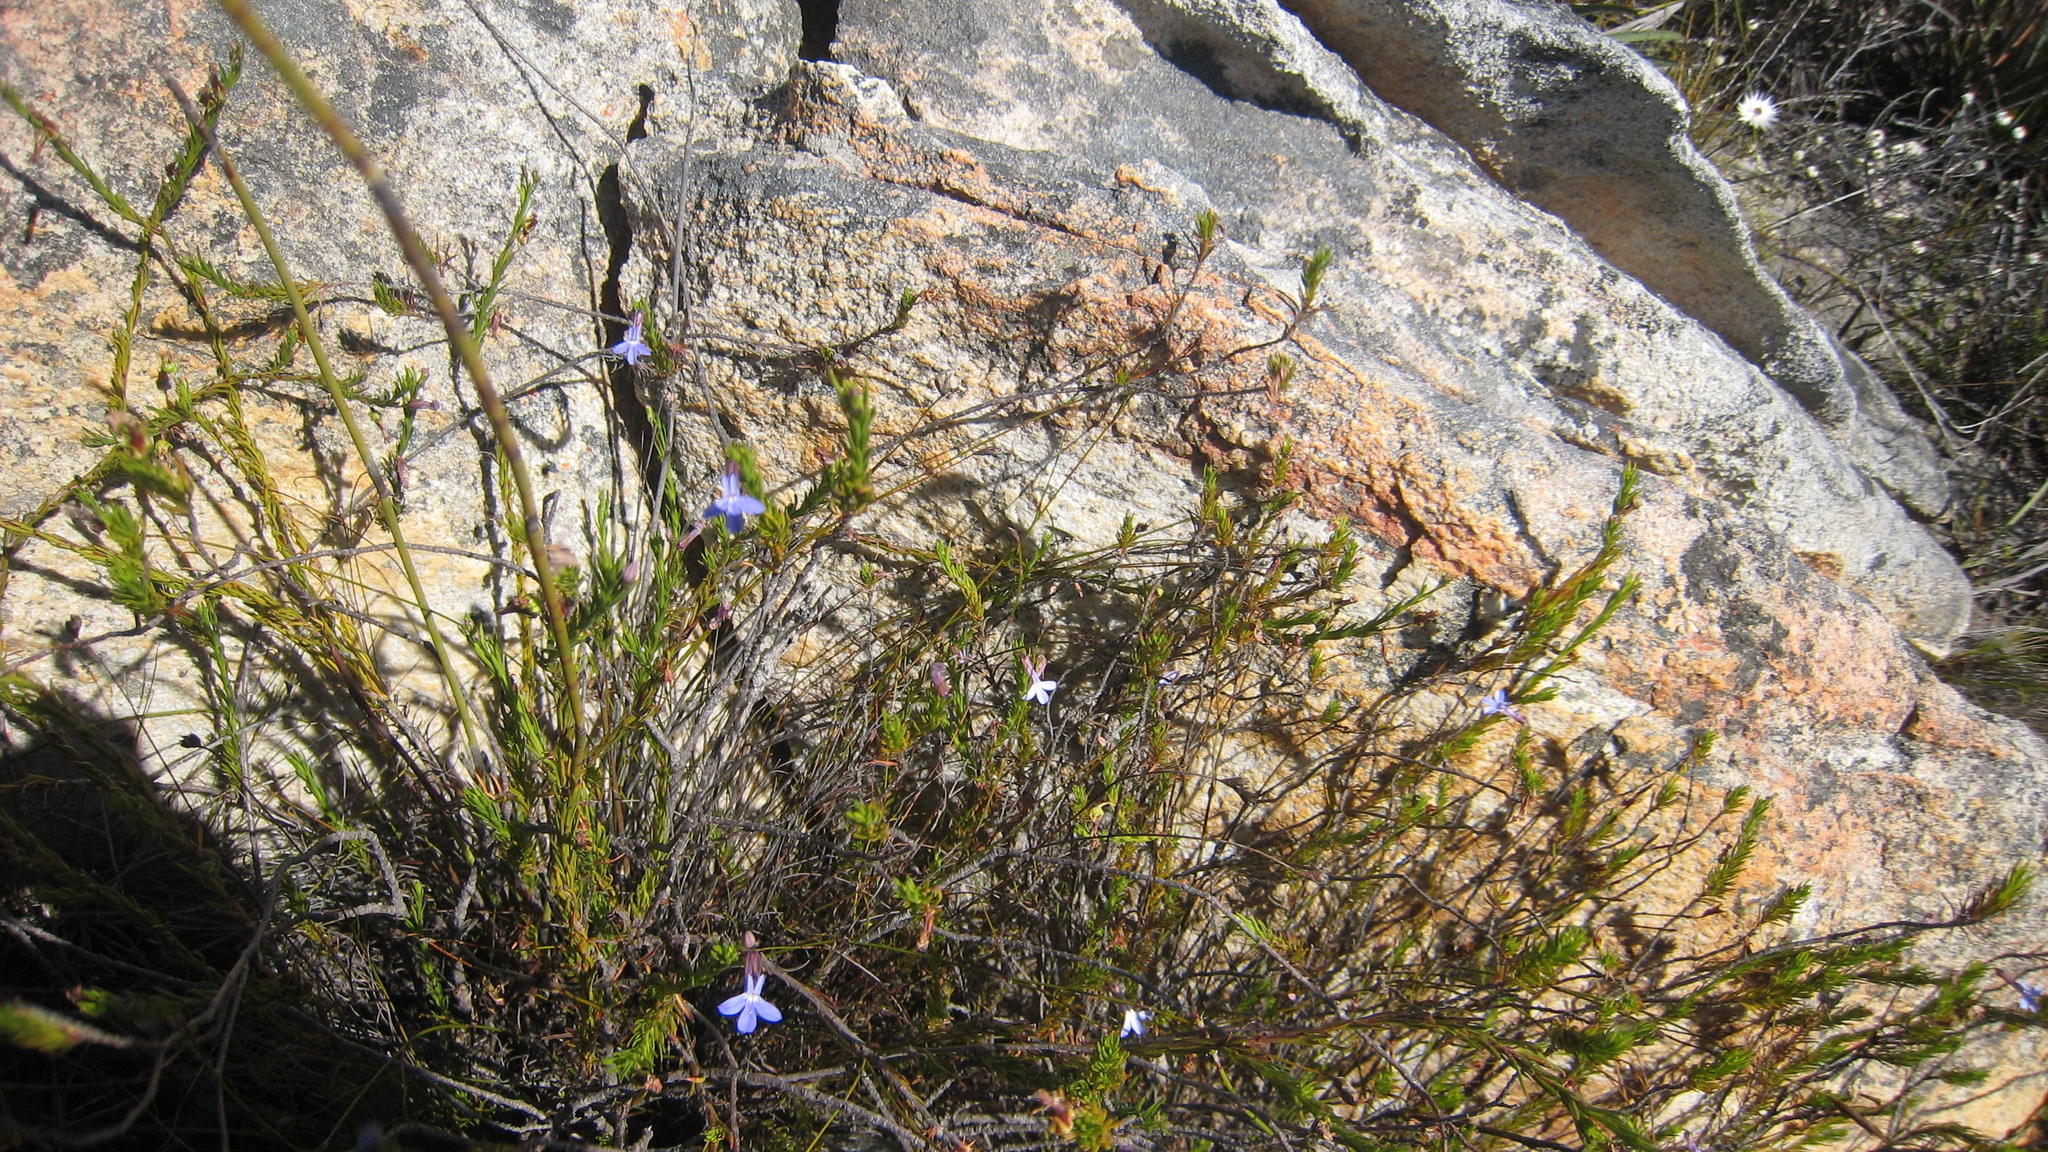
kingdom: Plantae
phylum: Tracheophyta
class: Magnoliopsida
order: Asterales
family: Campanulaceae
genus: Lobelia
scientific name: Lobelia pinifolia
